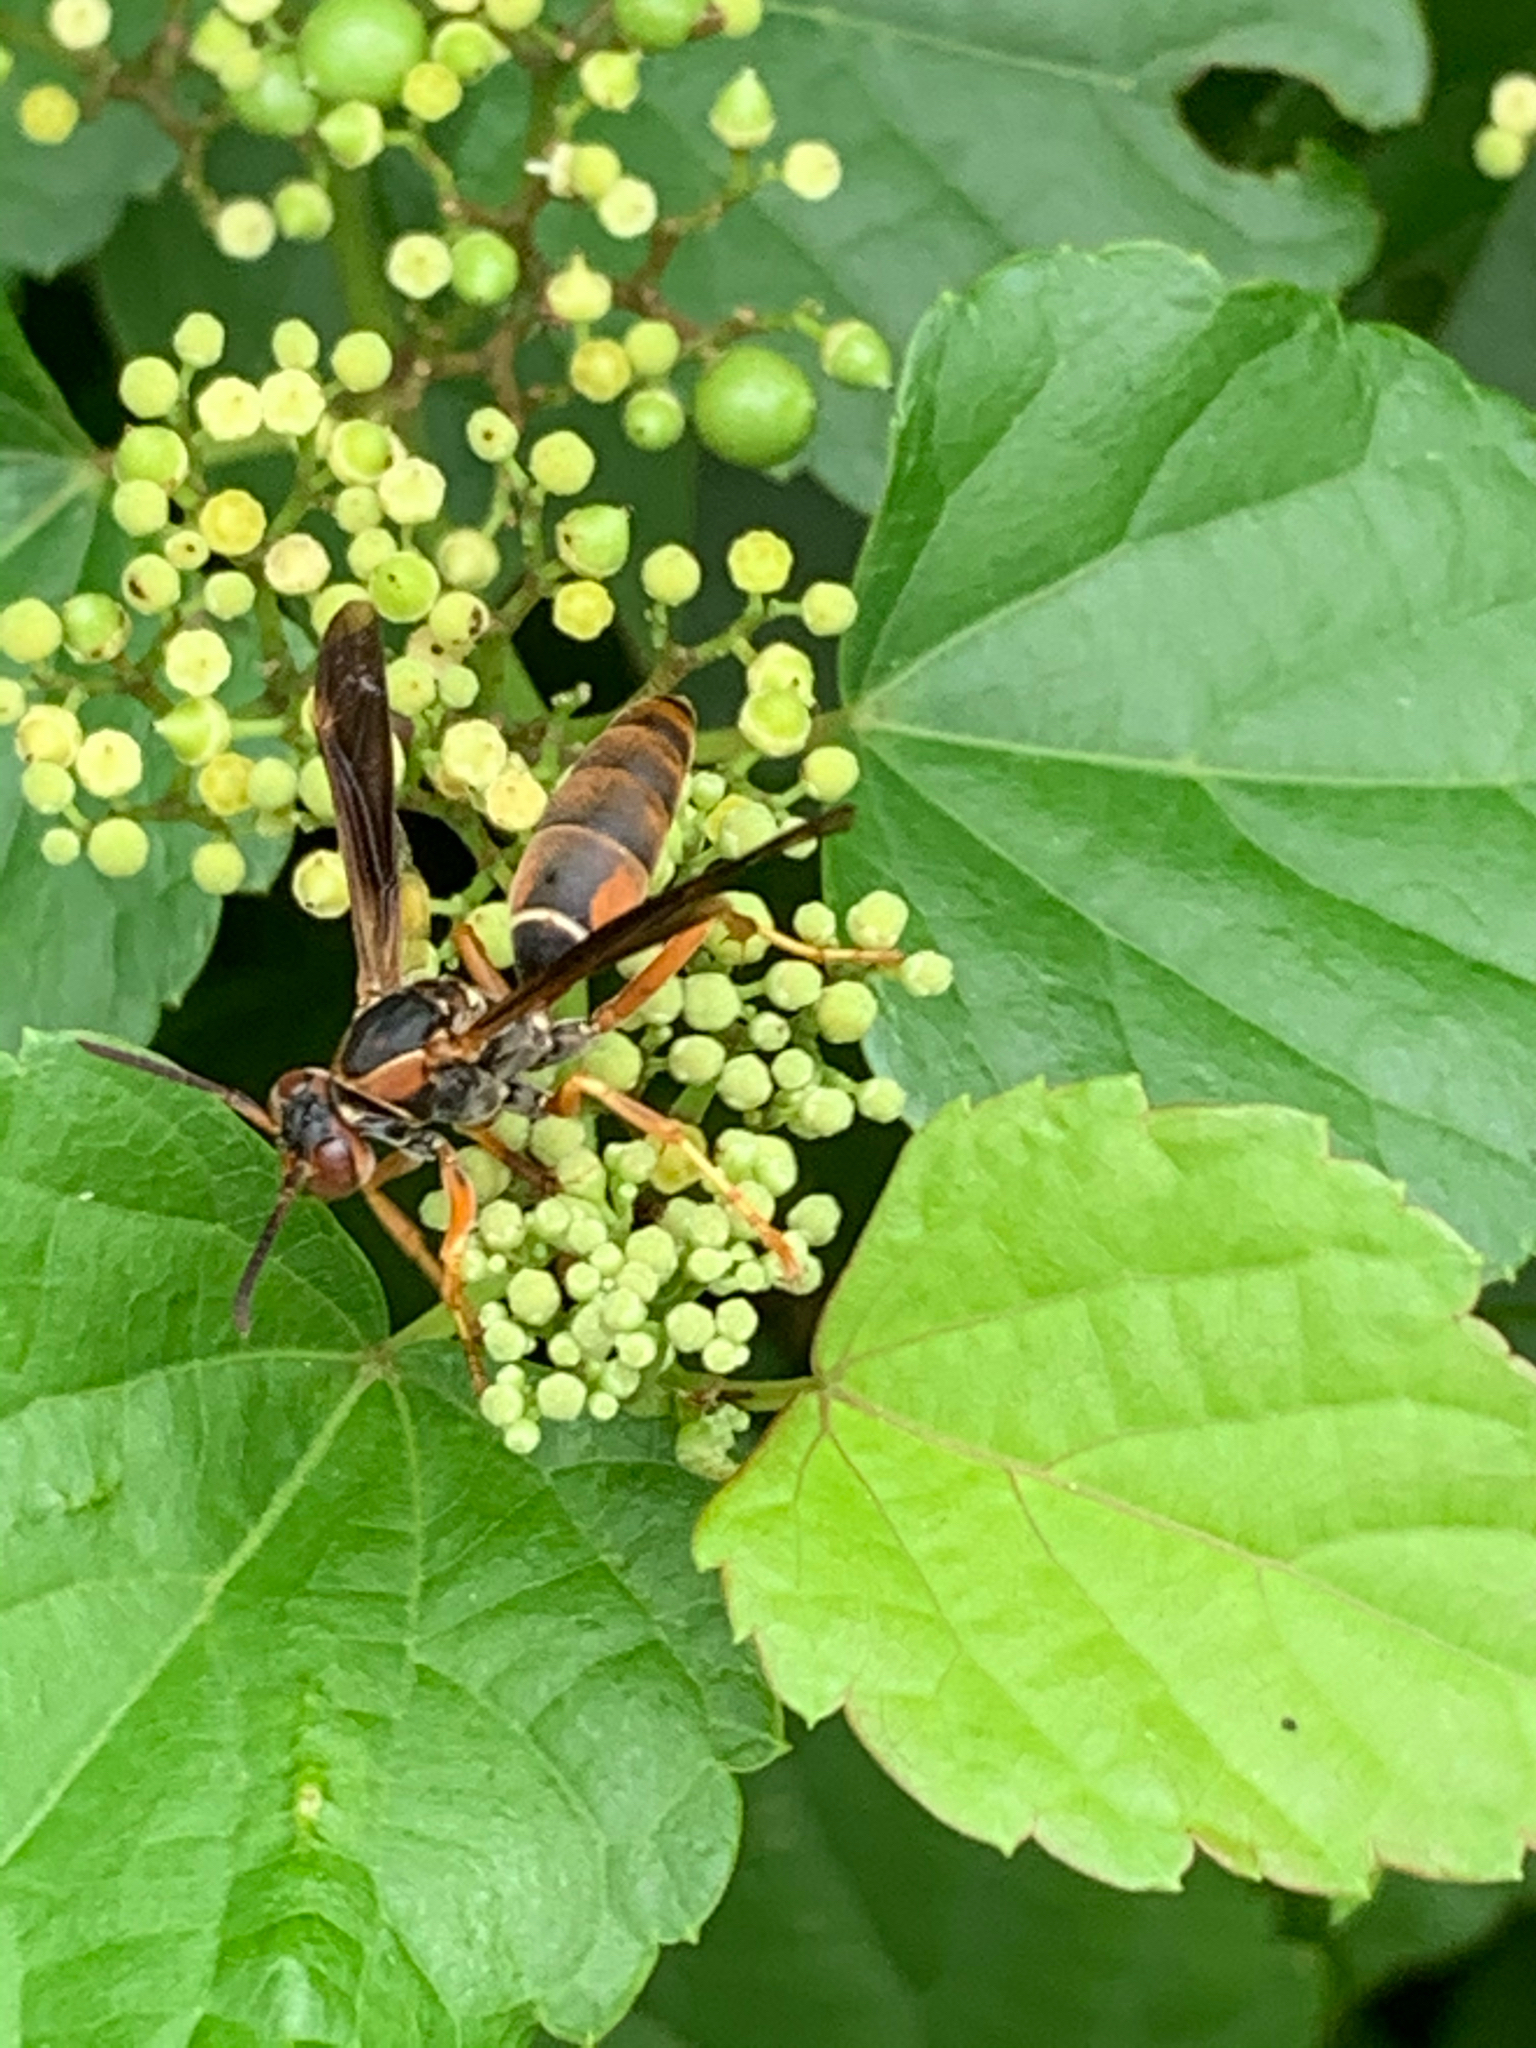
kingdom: Animalia
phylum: Arthropoda
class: Insecta
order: Hymenoptera
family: Eumenidae
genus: Polistes
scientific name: Polistes fuscatus
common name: Dark paper wasp
